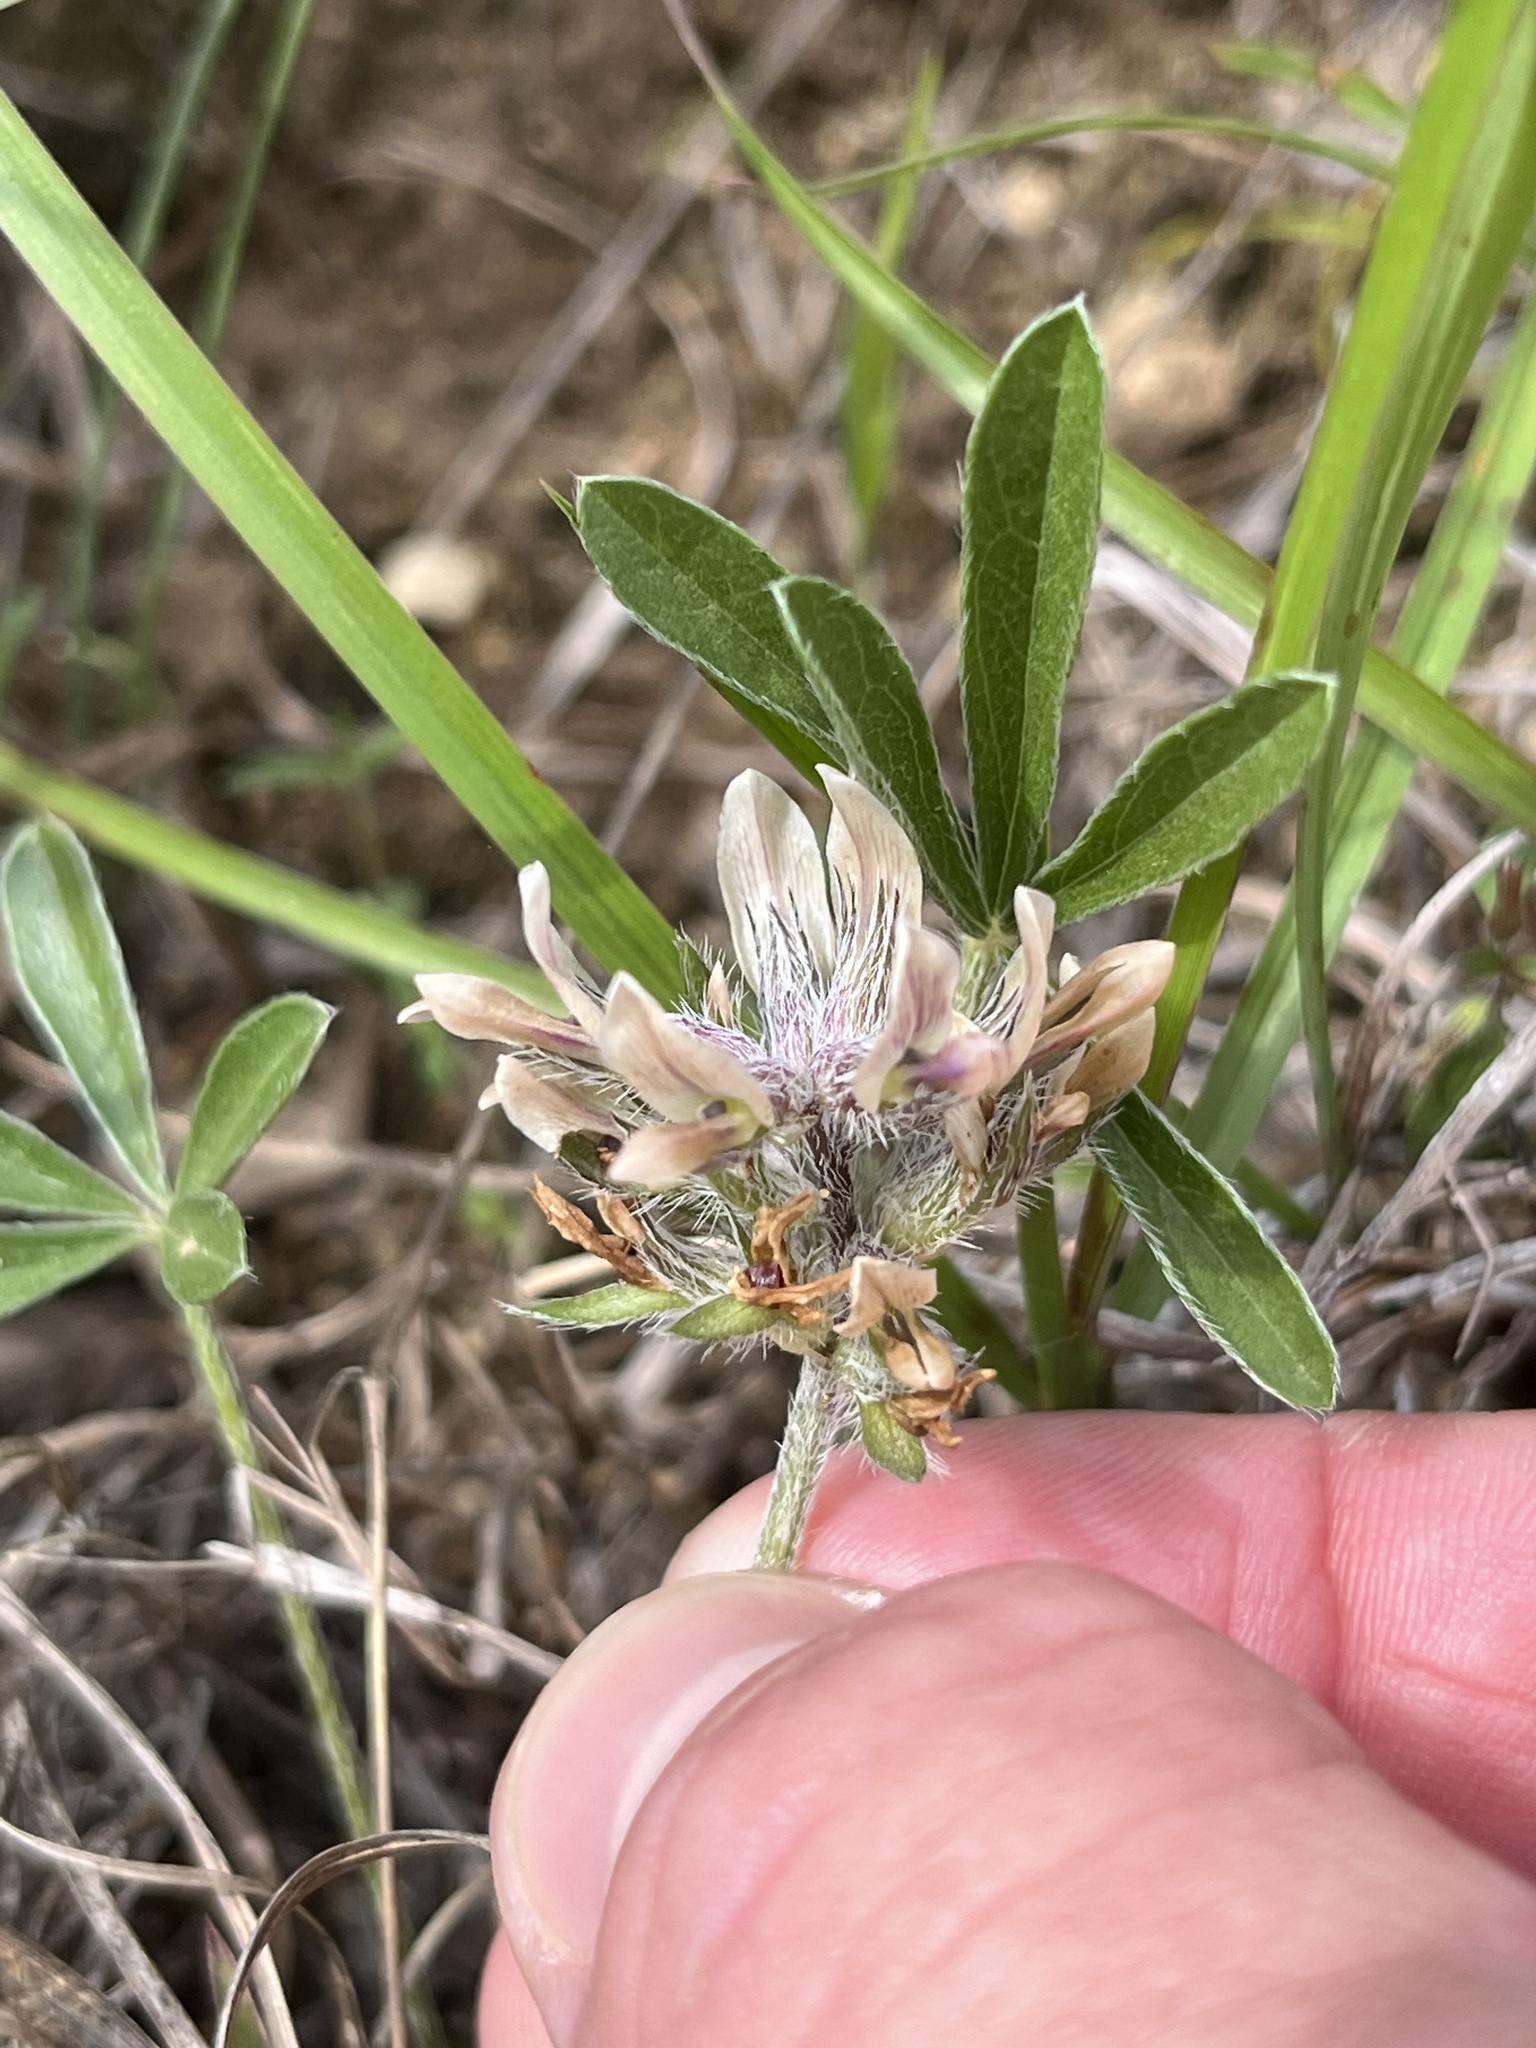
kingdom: Plantae
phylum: Tracheophyta
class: Magnoliopsida
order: Fabales
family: Fabaceae
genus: Pediomelum
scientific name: Pediomelum hypogaeum
